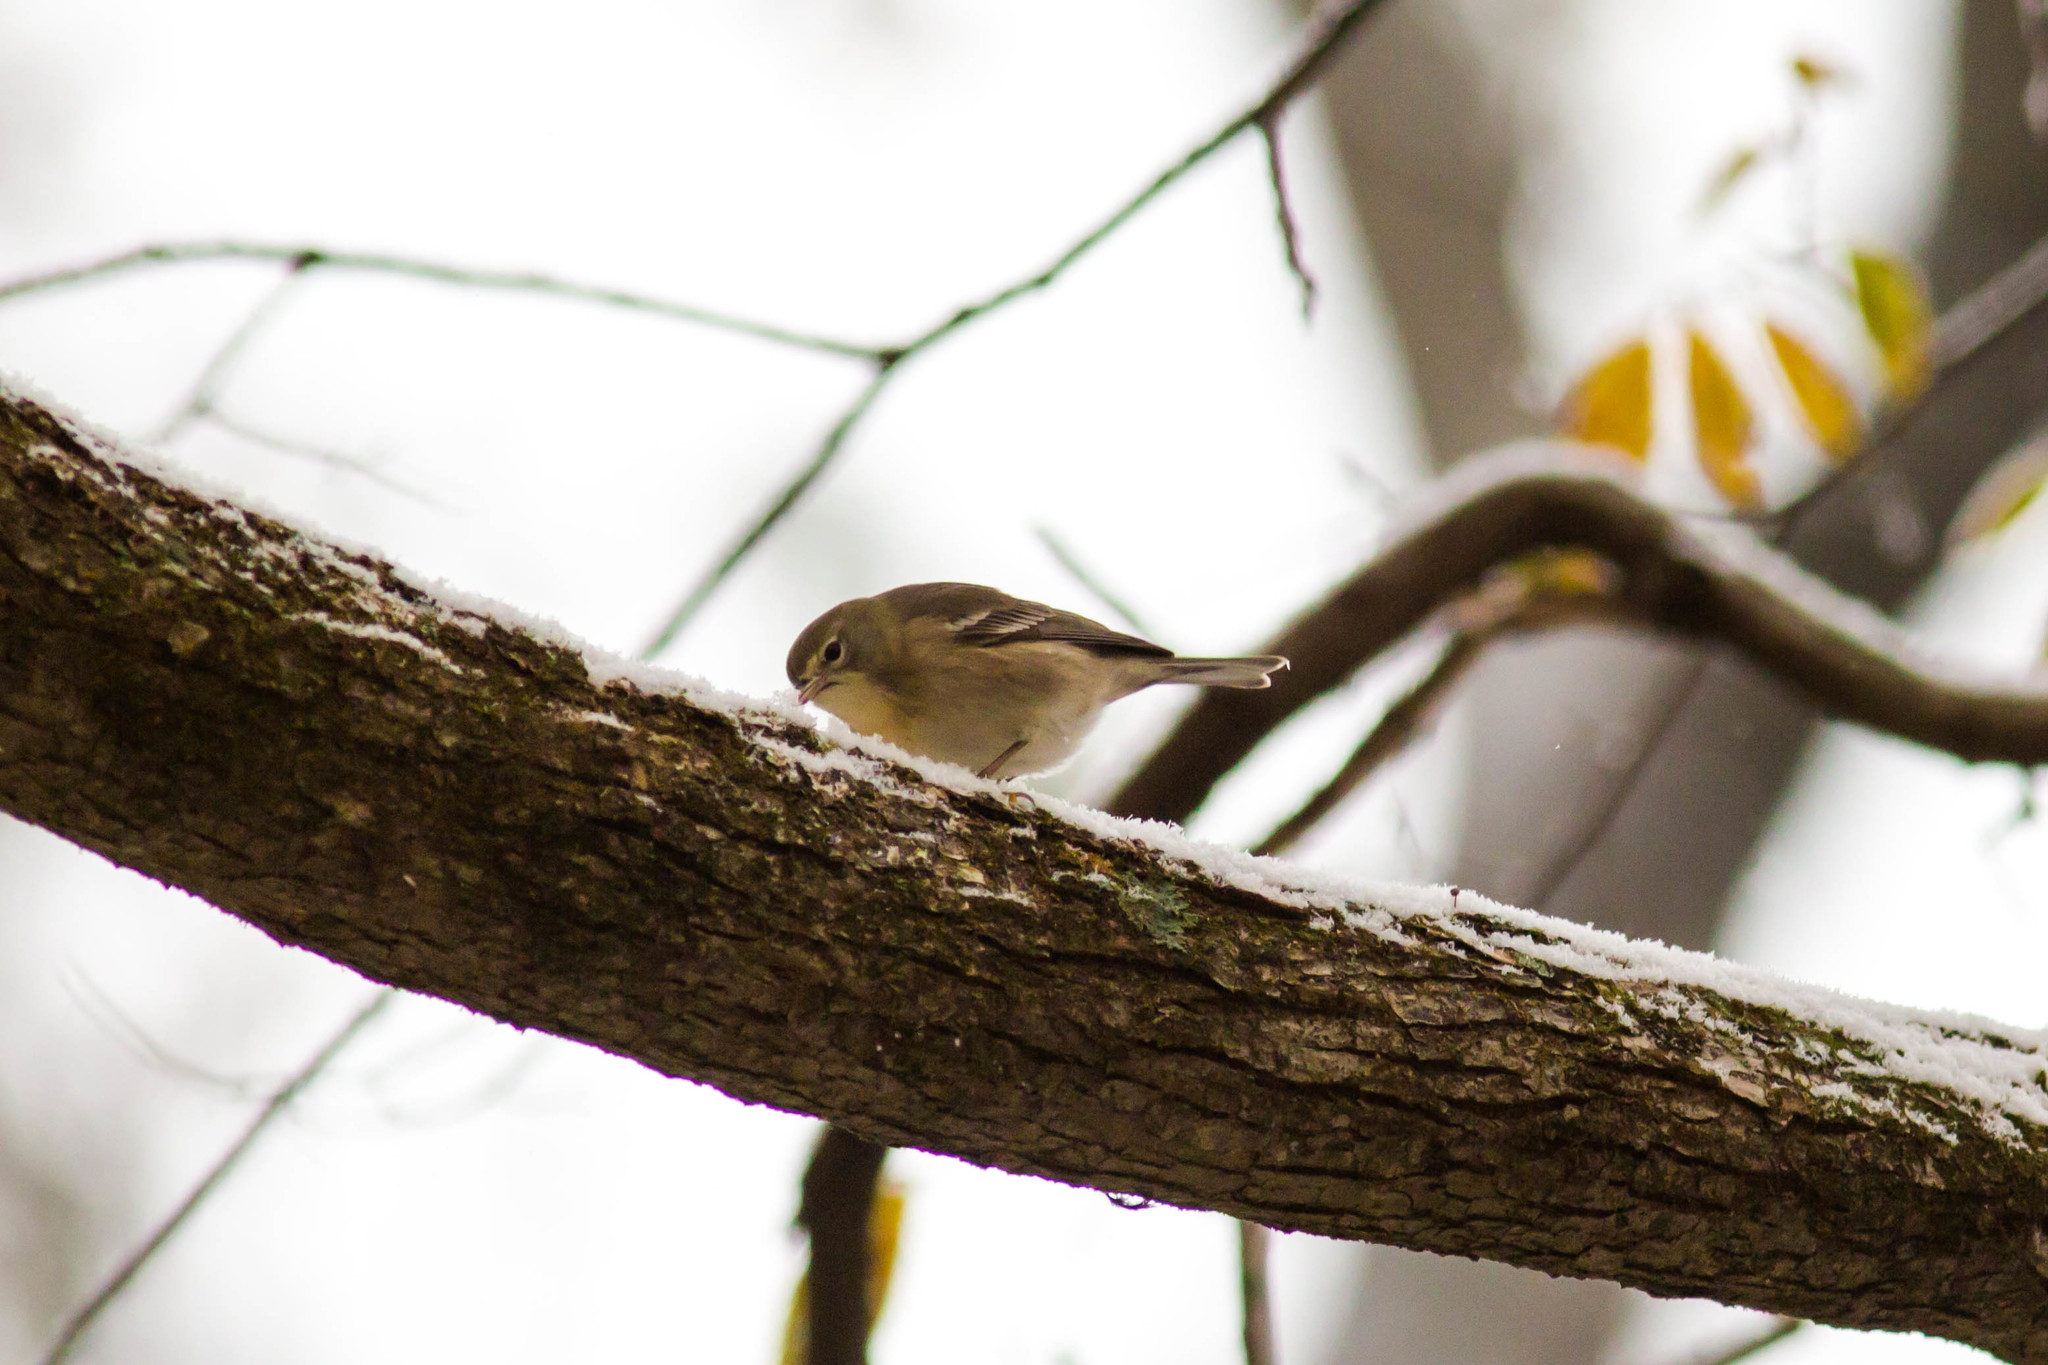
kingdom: Animalia
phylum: Chordata
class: Aves
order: Passeriformes
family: Parulidae
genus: Setophaga
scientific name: Setophaga pinus
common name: Pine warbler
